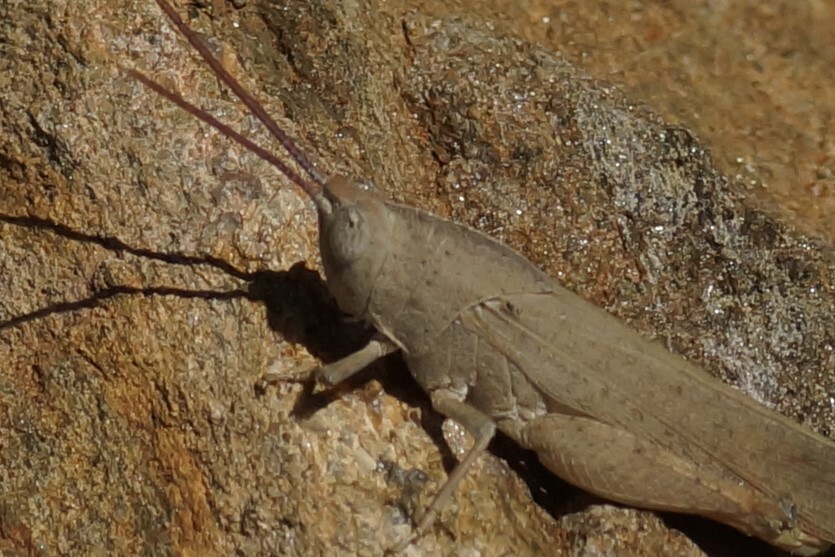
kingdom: Animalia
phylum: Arthropoda
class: Insecta
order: Orthoptera
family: Acrididae
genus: Goniaea
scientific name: Goniaea vocans
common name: Slender gumleaf grasshopper
